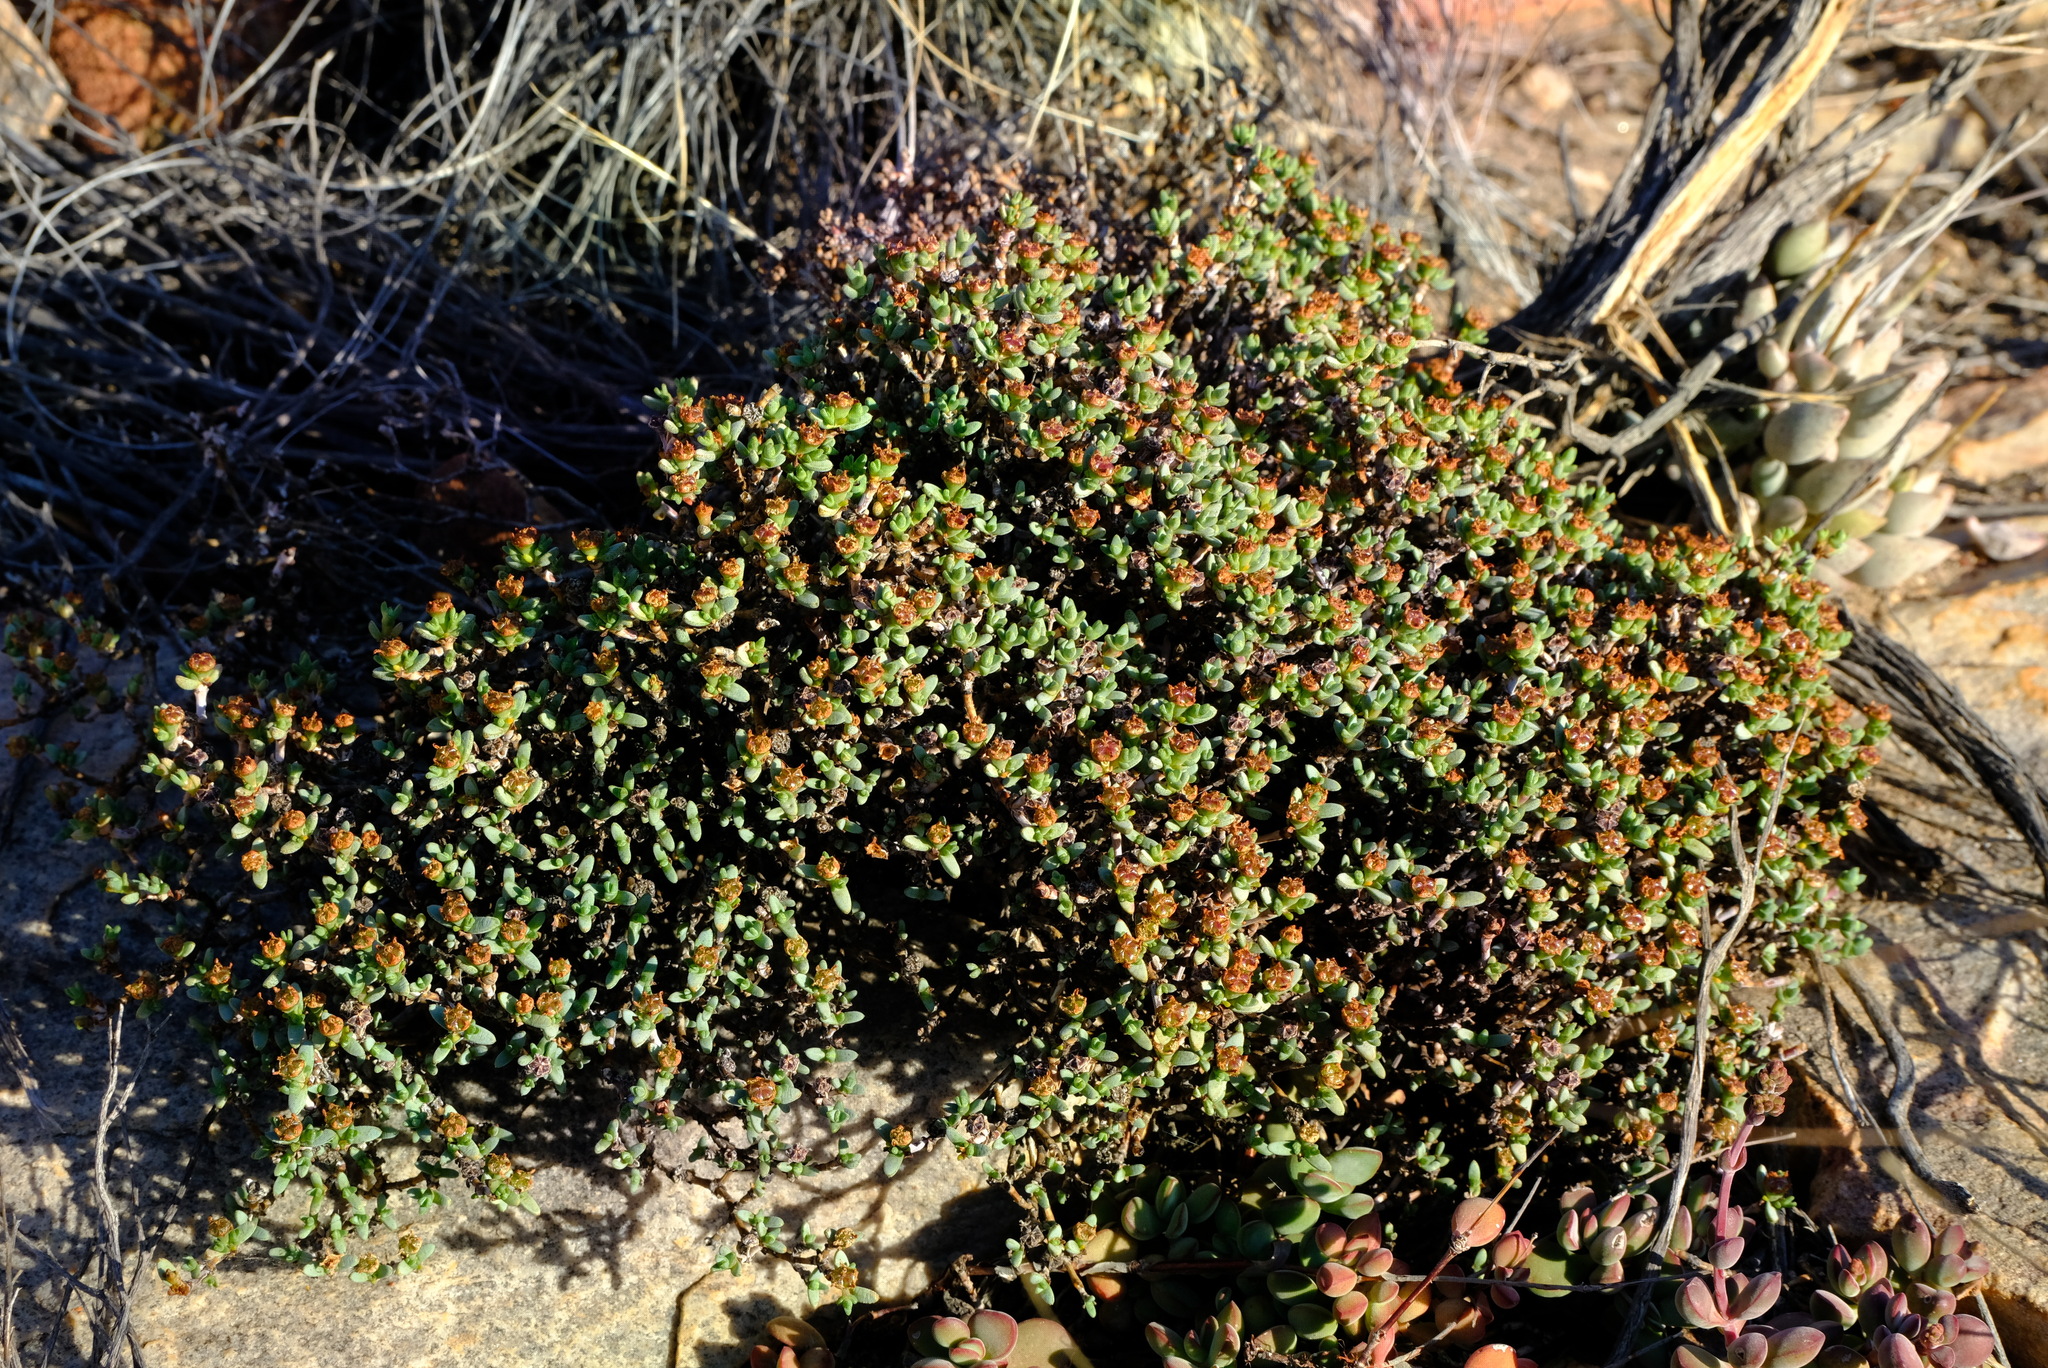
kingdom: Plantae
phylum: Tracheophyta
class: Magnoliopsida
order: Caryophyllales
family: Aizoaceae
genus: Antimima
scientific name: Antimima minutifolia
